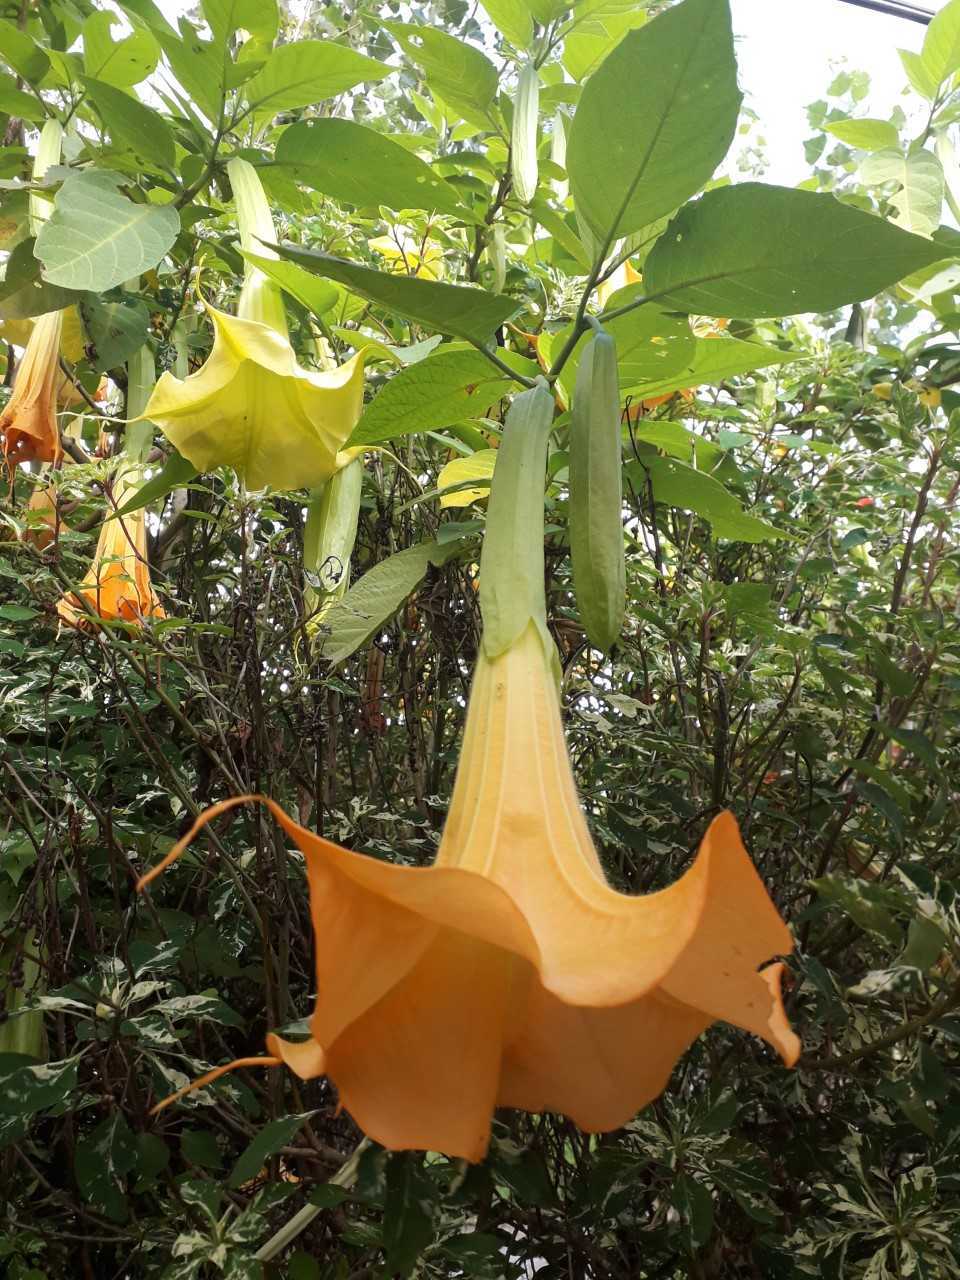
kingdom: Plantae
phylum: Tracheophyta
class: Magnoliopsida
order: Solanales
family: Solanaceae
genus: Brugmansia
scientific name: Brugmansia candida
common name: Angel's-trumpet
